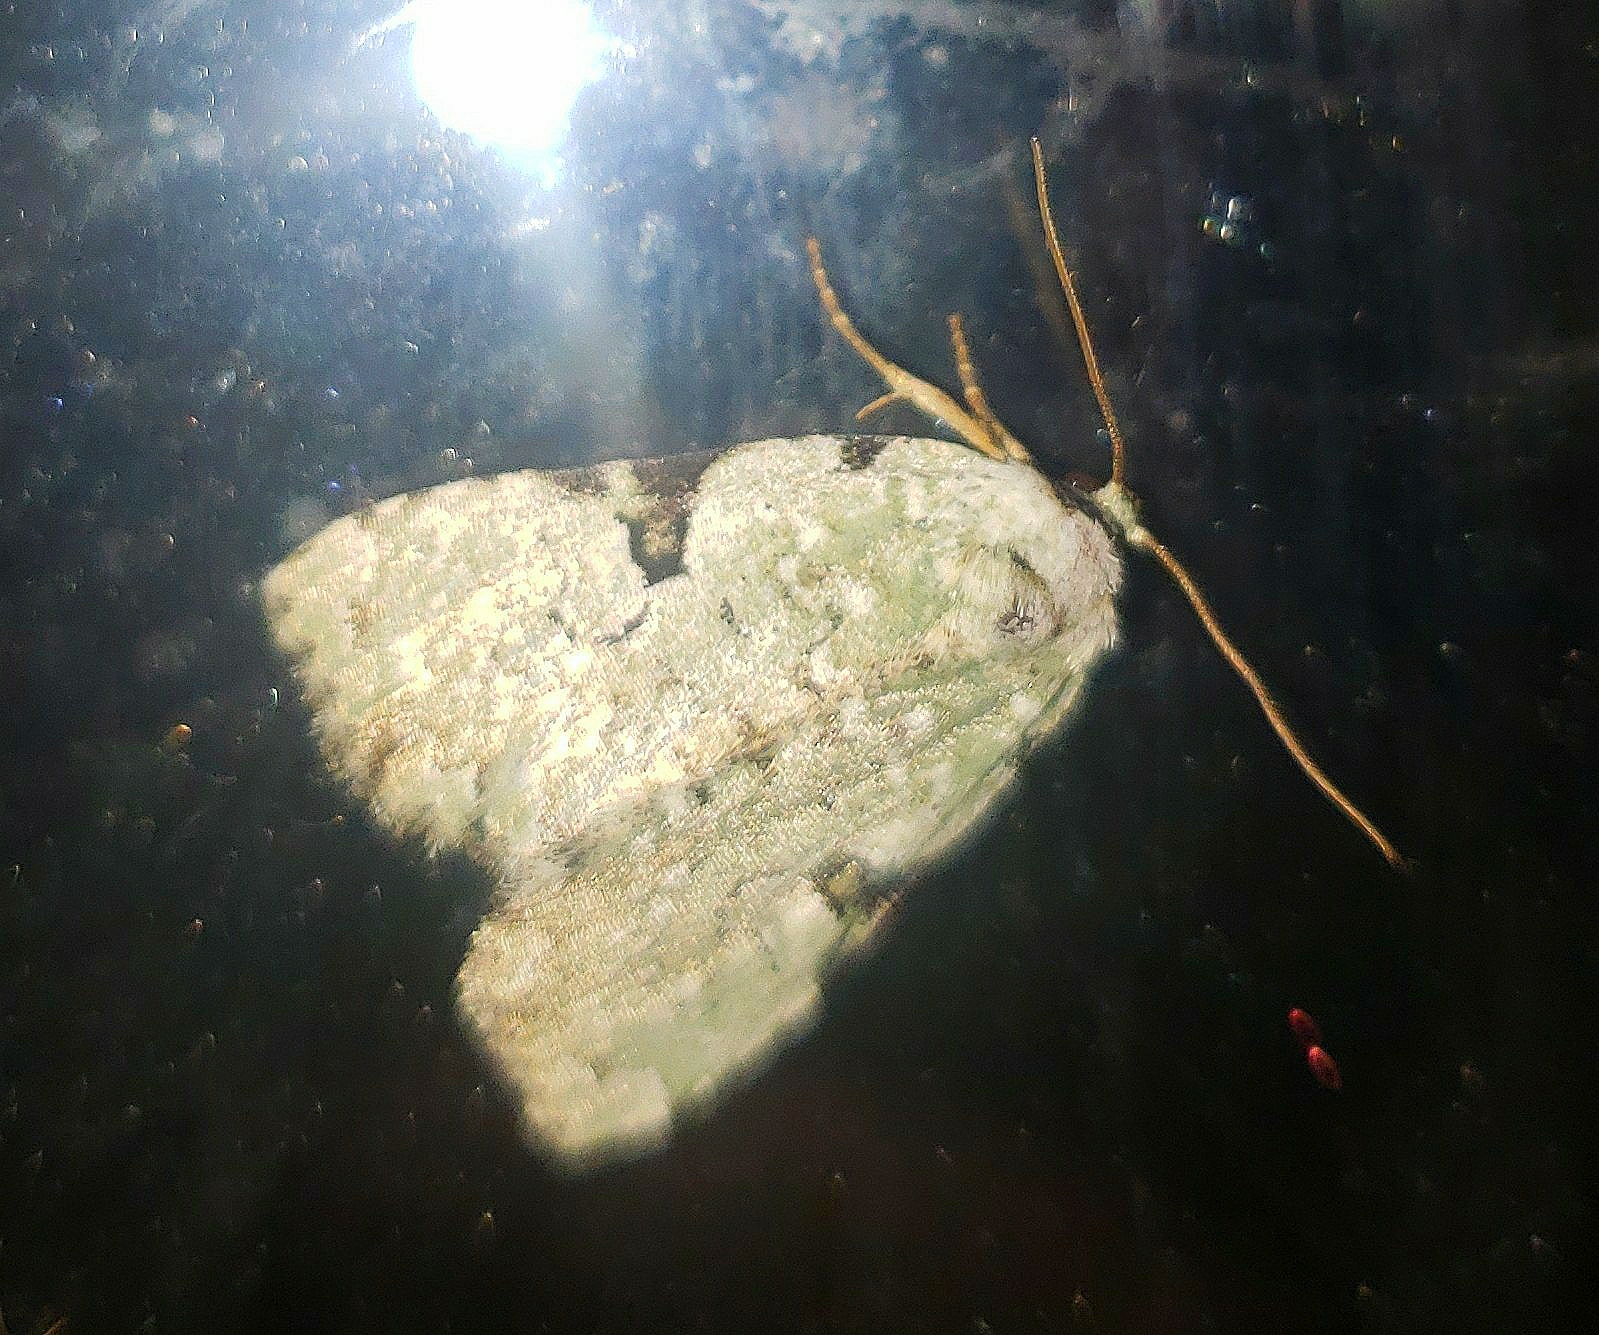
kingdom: Animalia
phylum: Arthropoda
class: Insecta
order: Lepidoptera
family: Noctuidae
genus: Leuconycta
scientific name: Leuconycta diphteroides
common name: Green leuconycta moth
